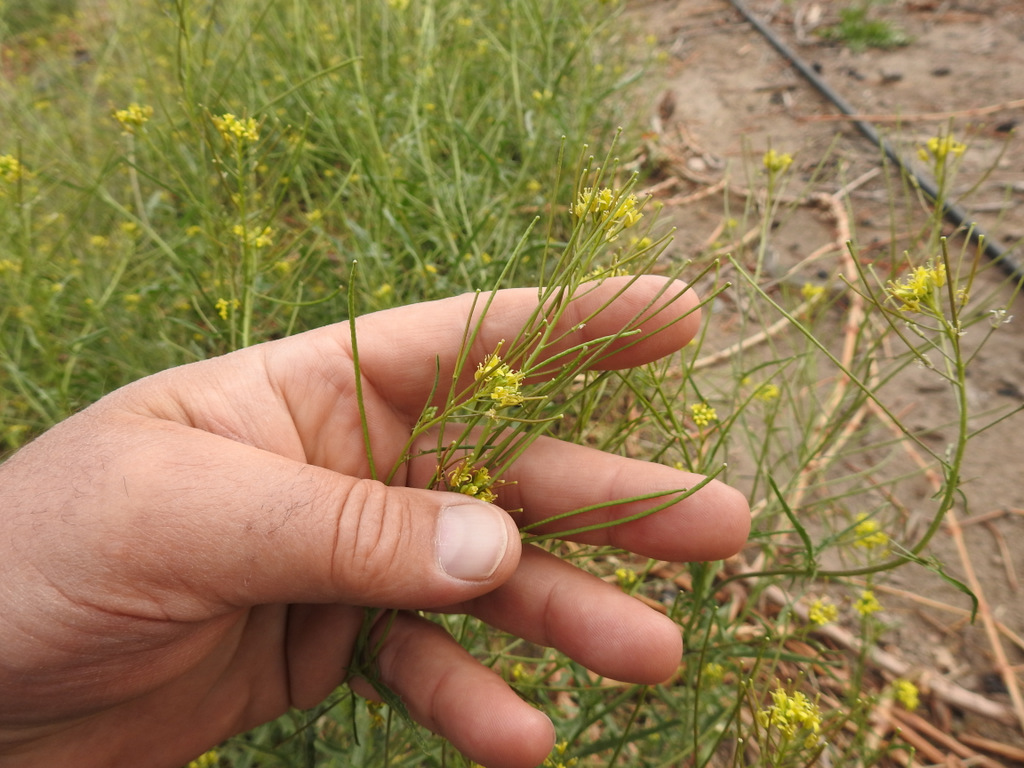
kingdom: Plantae
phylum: Tracheophyta
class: Magnoliopsida
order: Brassicales
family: Brassicaceae
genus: Sisymbrium
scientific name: Sisymbrium irio
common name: London rocket
